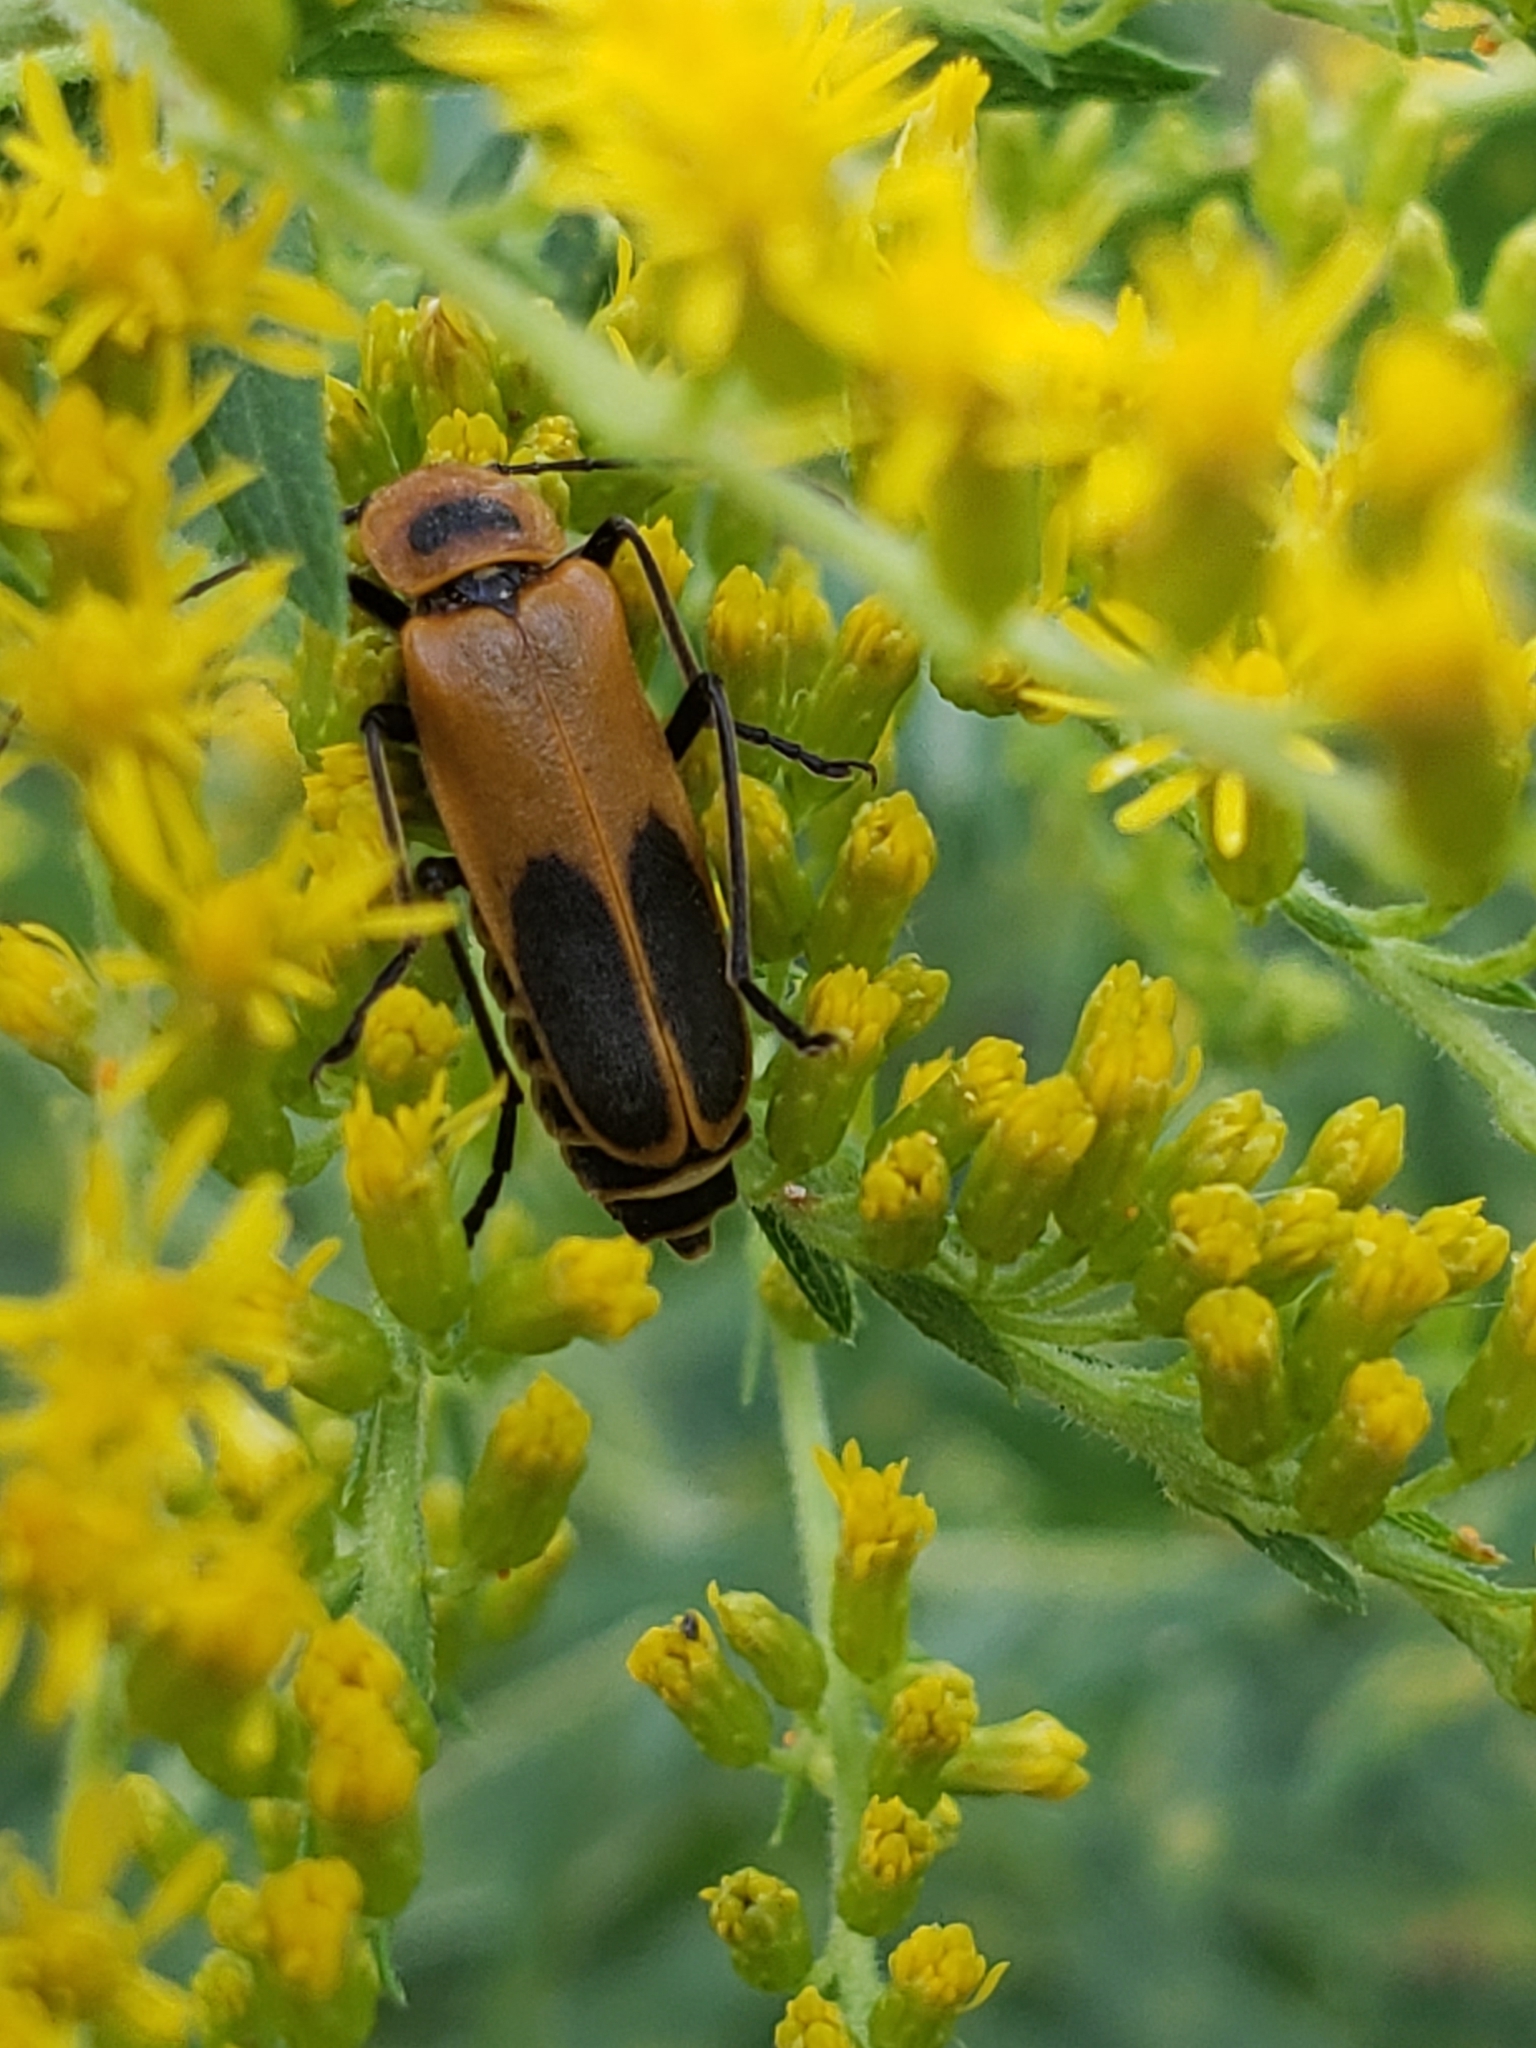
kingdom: Animalia
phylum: Arthropoda
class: Insecta
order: Coleoptera
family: Cantharidae
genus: Chauliognathus
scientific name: Chauliognathus pensylvanicus
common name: Goldenrod soldier beetle
